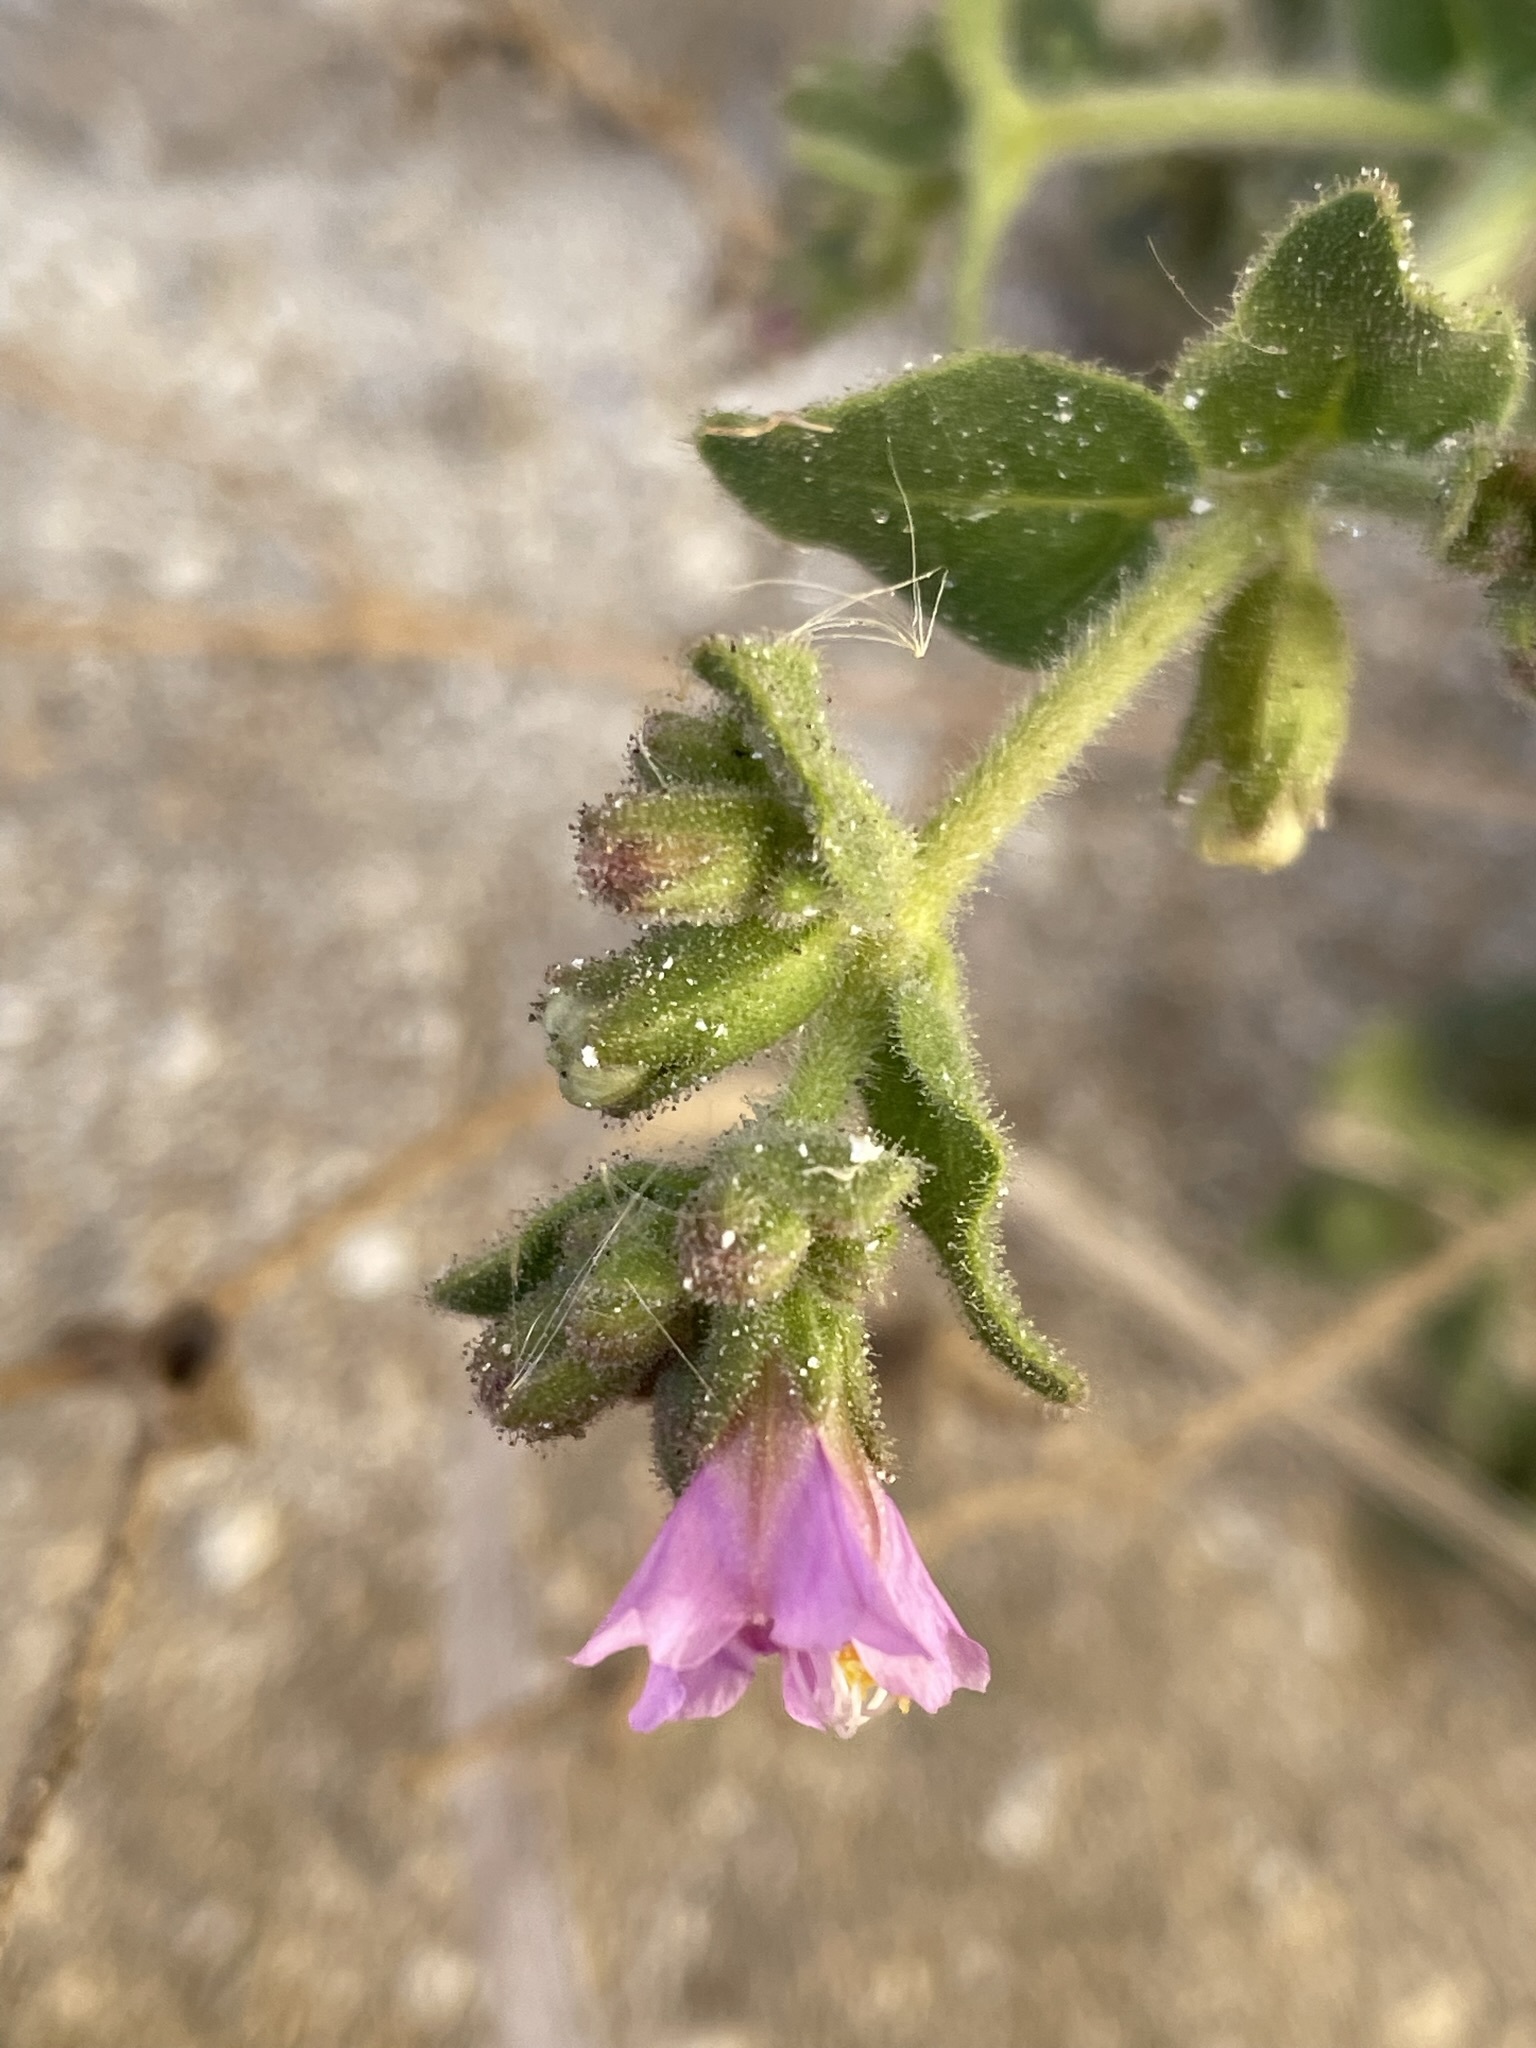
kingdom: Plantae
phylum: Tracheophyta
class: Magnoliopsida
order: Caryophyllales
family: Nyctaginaceae
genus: Mirabilis
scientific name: Mirabilis laevis
